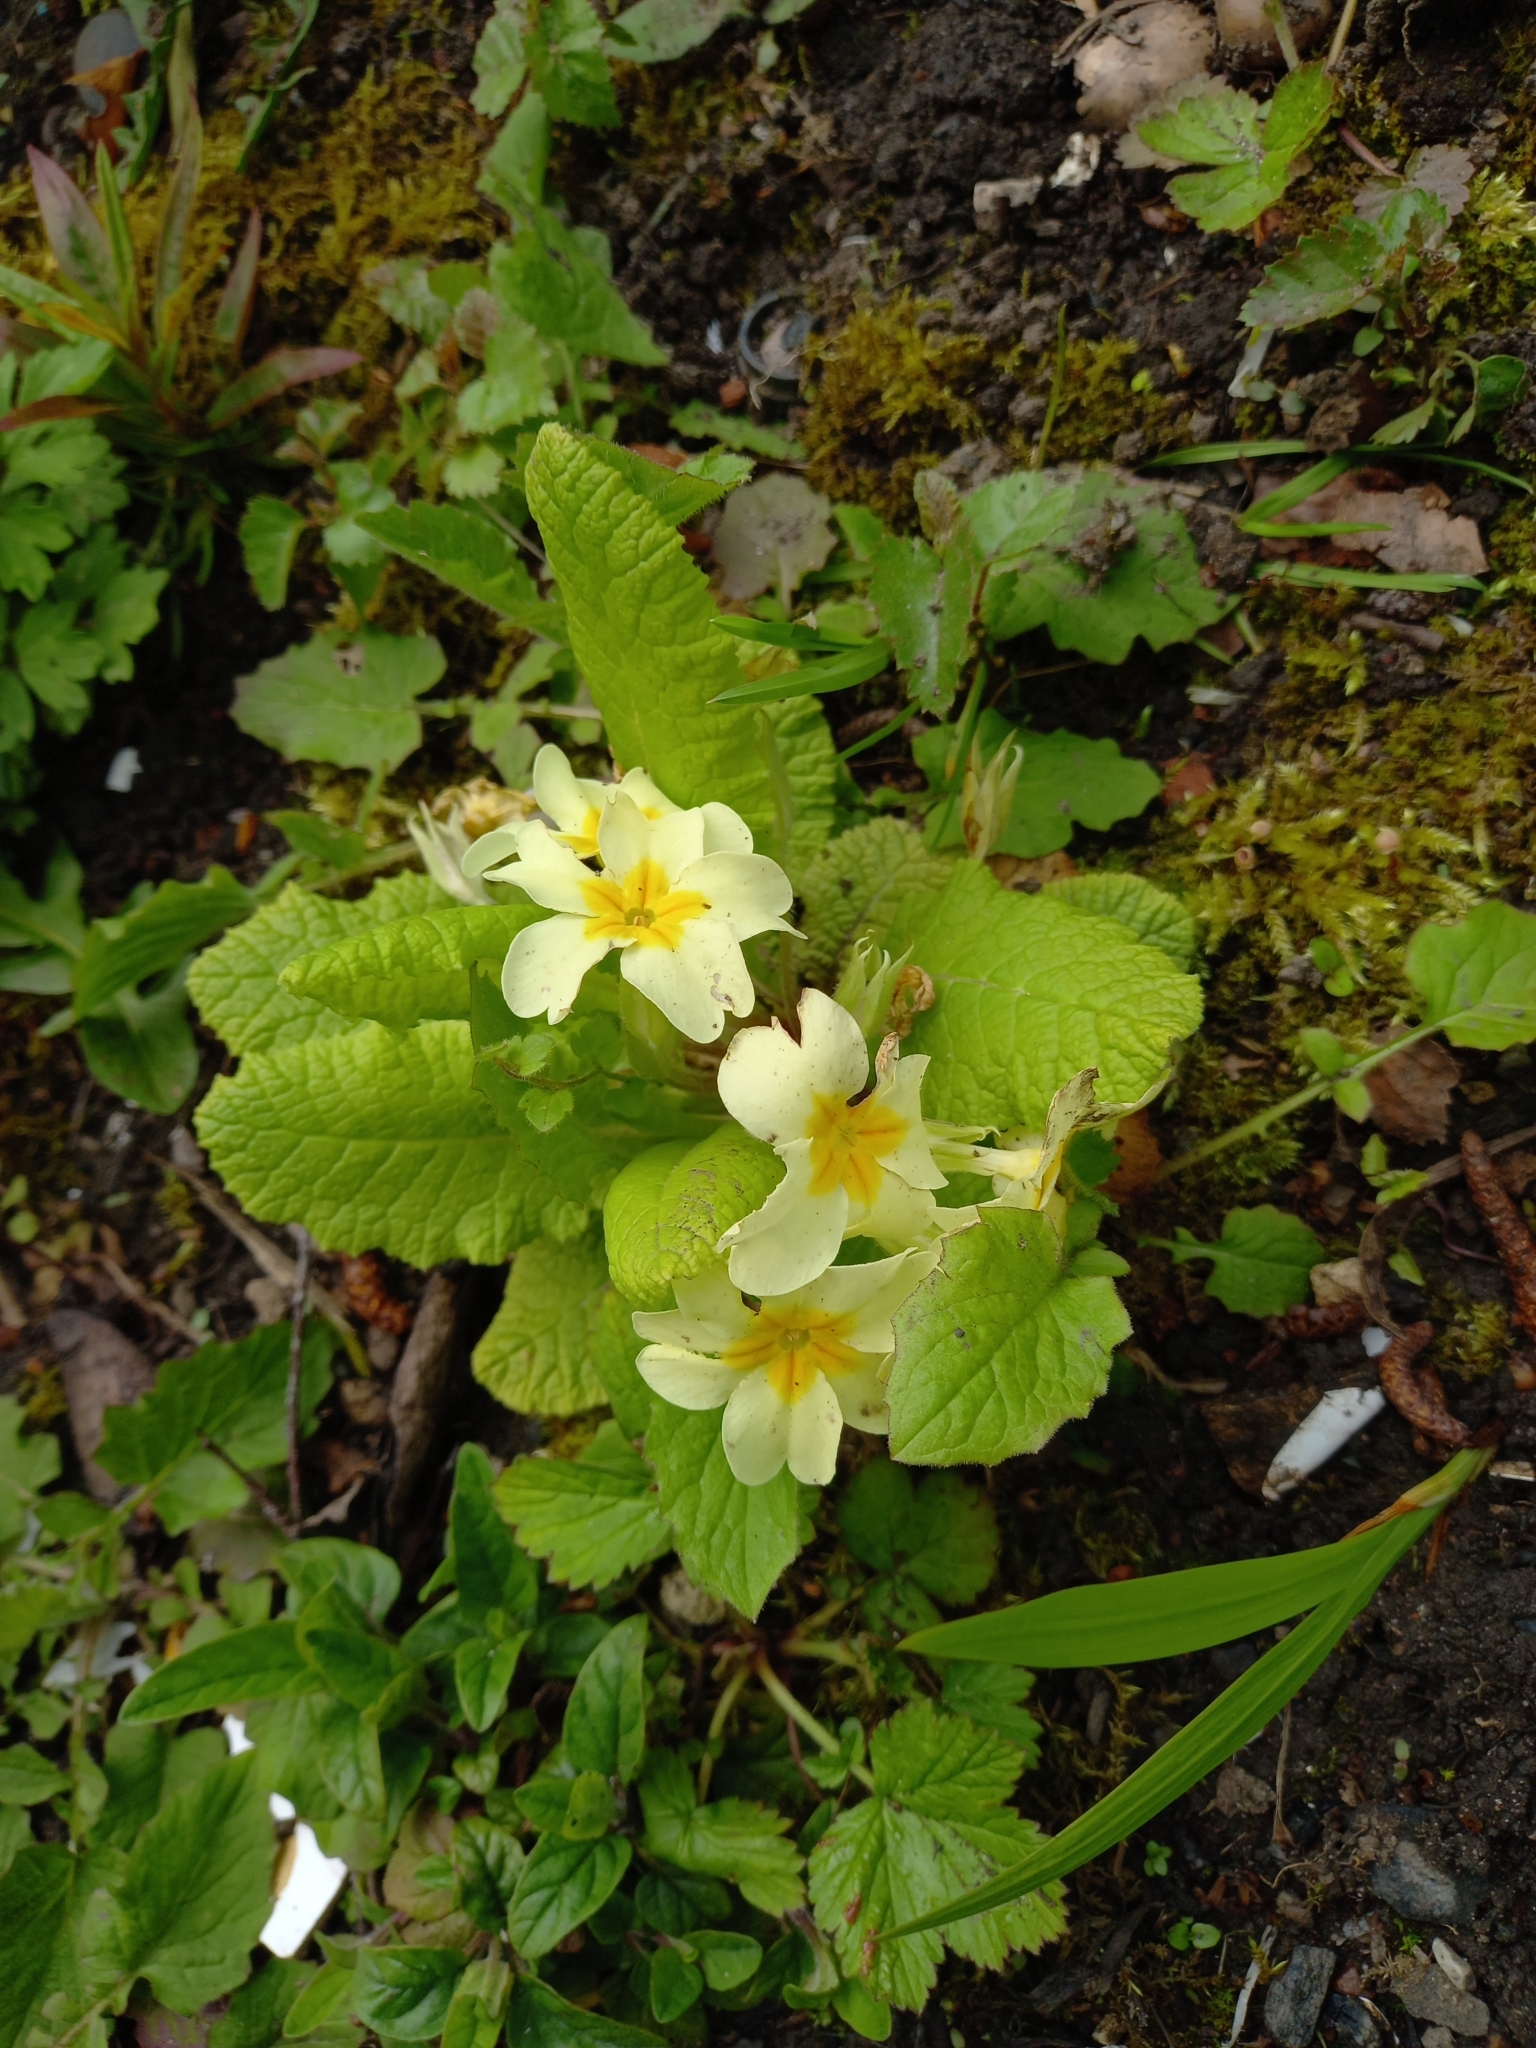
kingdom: Plantae
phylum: Tracheophyta
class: Magnoliopsida
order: Ericales
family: Primulaceae
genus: Primula
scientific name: Primula vulgaris
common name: Primrose
